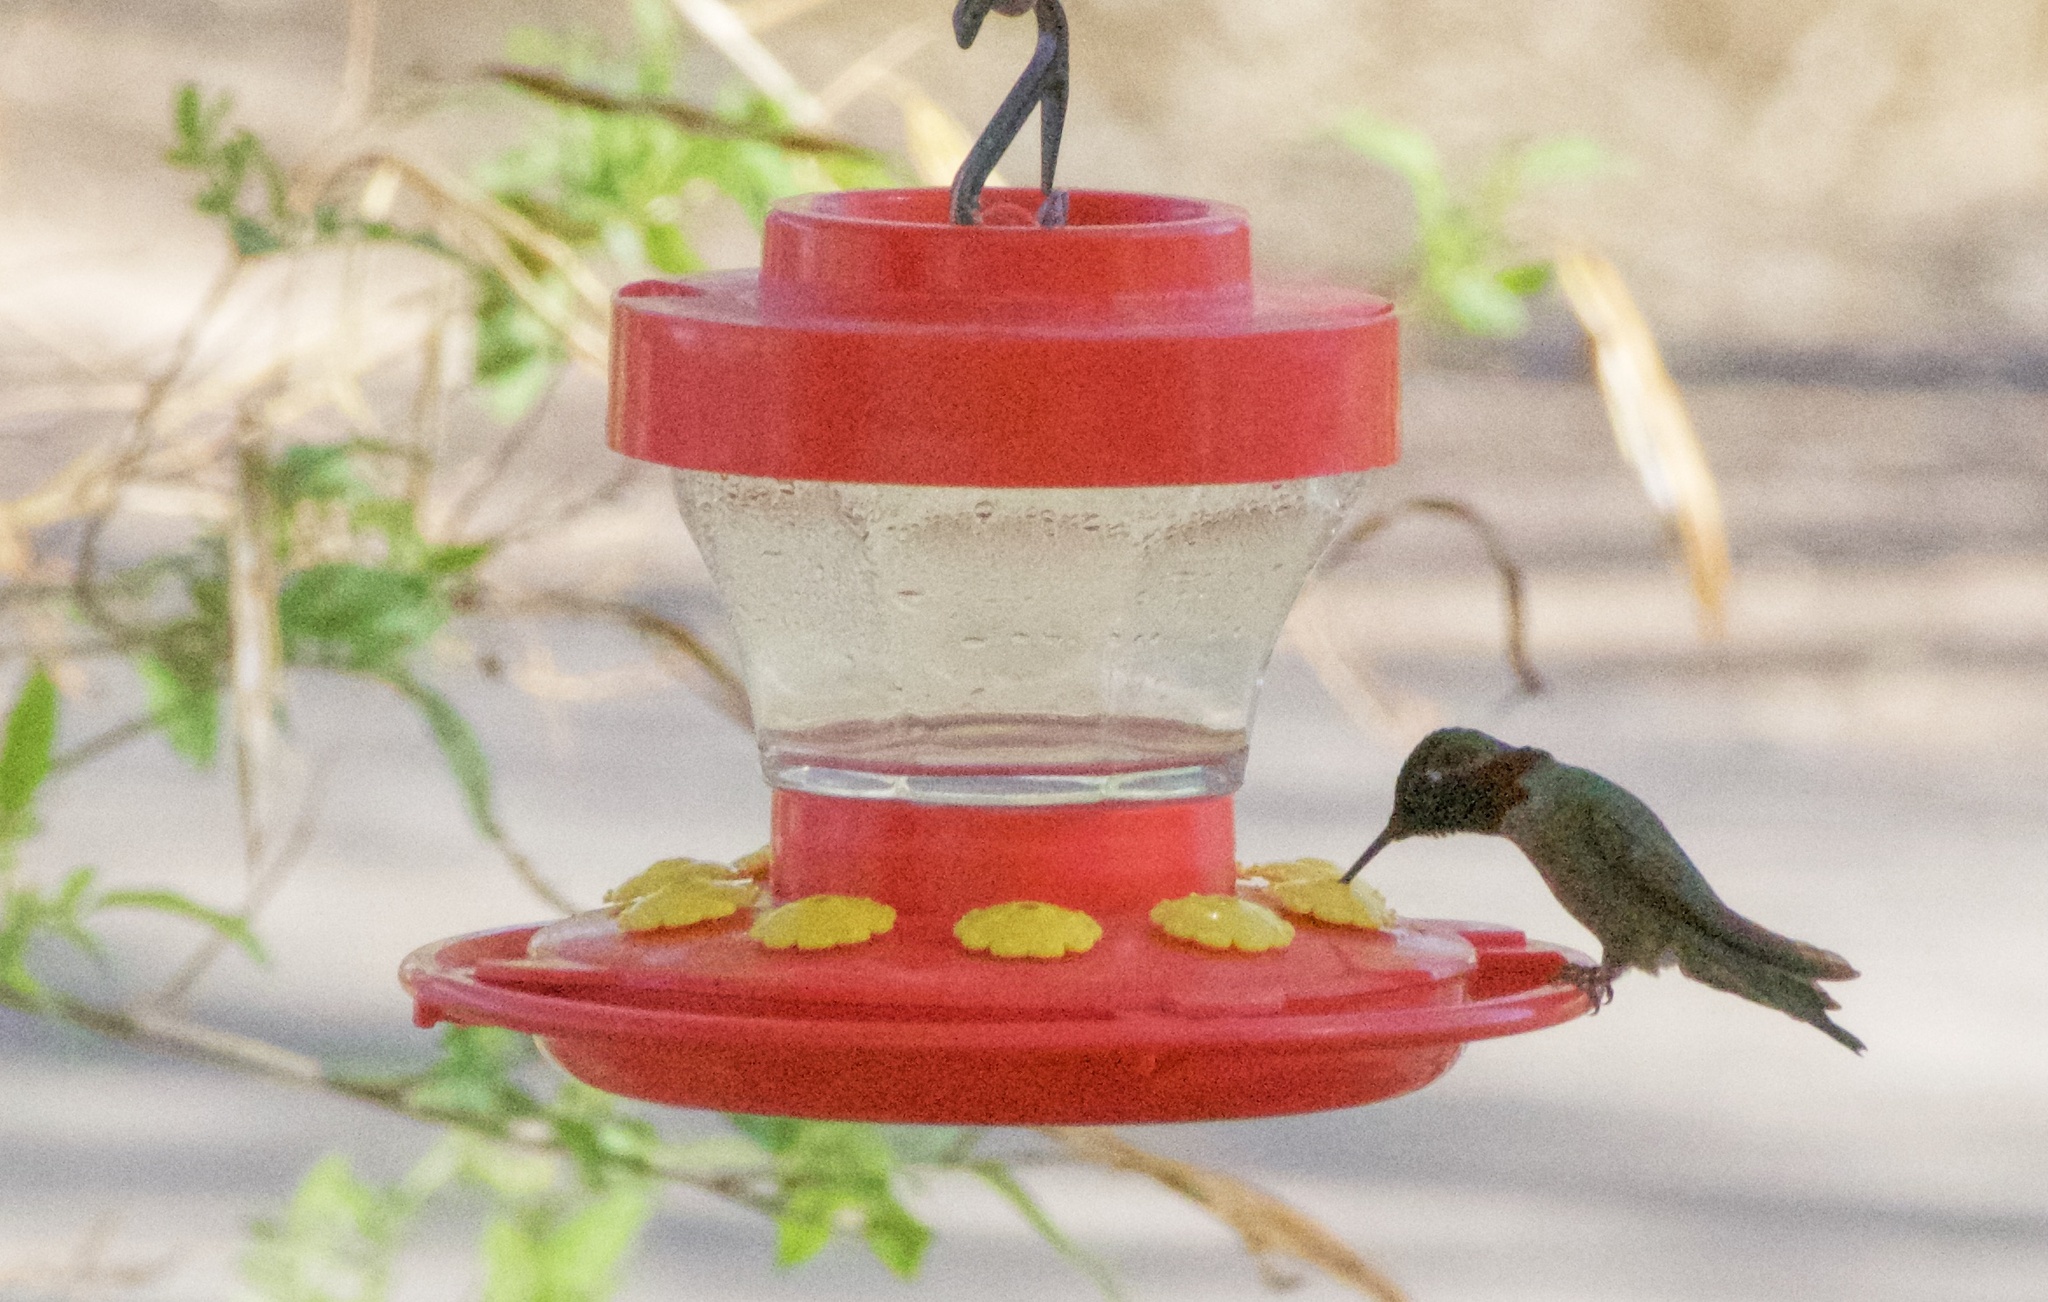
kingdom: Animalia
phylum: Chordata
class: Aves
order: Apodiformes
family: Trochilidae
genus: Calypte
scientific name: Calypte anna
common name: Anna's hummingbird
